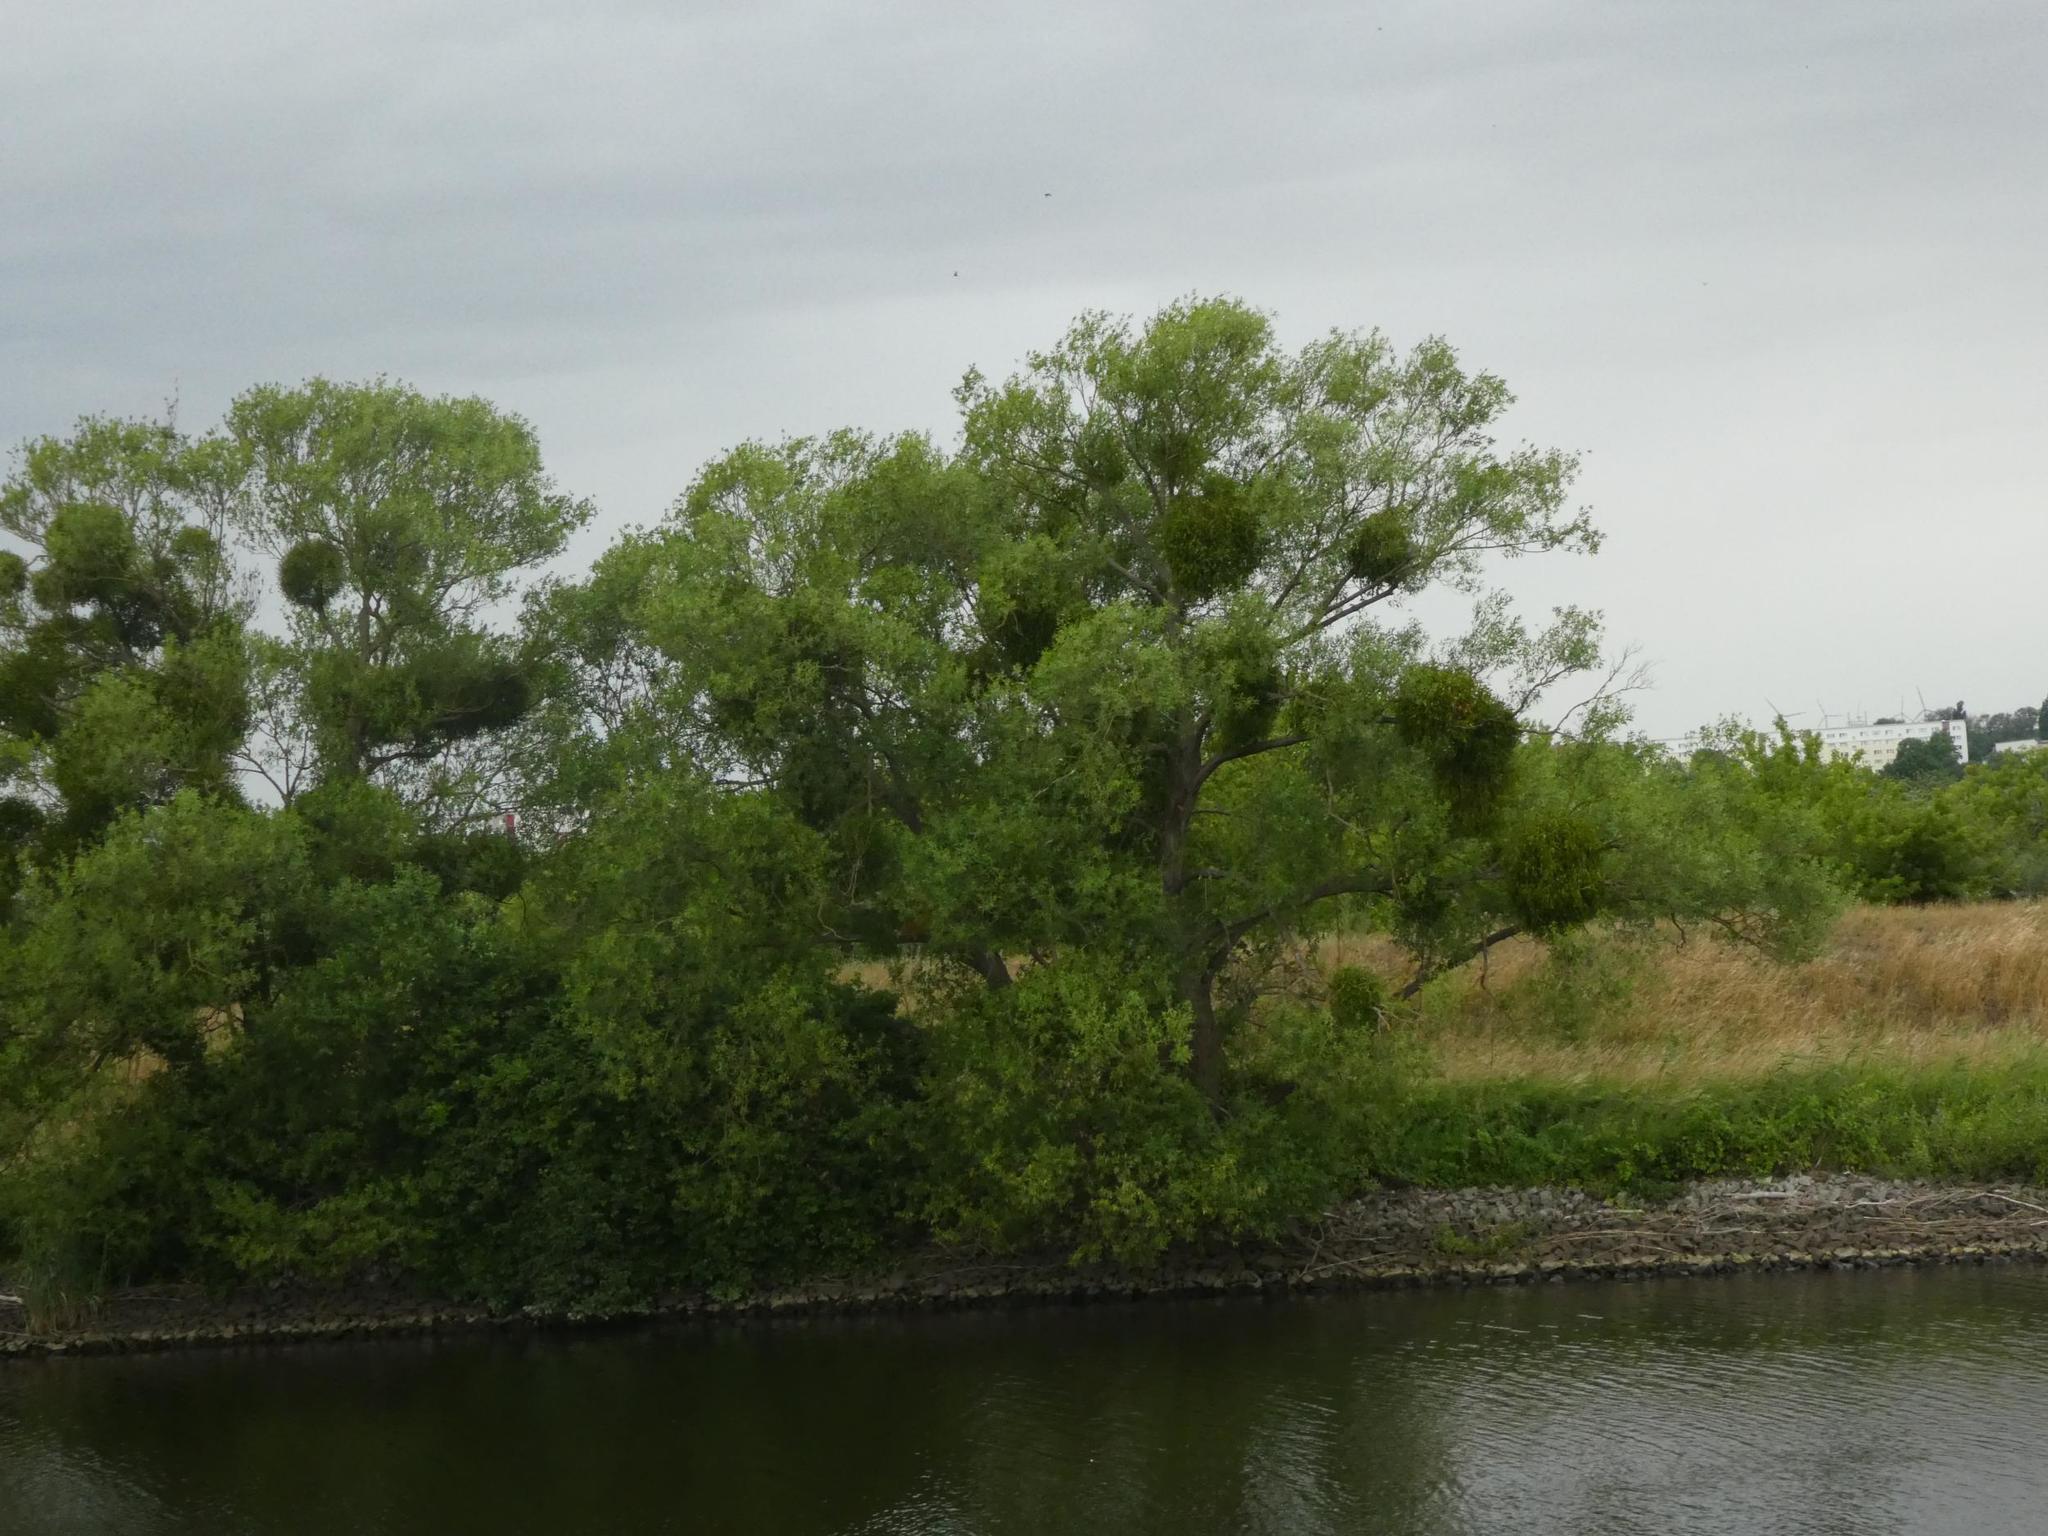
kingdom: Plantae
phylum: Tracheophyta
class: Magnoliopsida
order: Santalales
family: Viscaceae
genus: Viscum
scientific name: Viscum album
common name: Mistletoe
